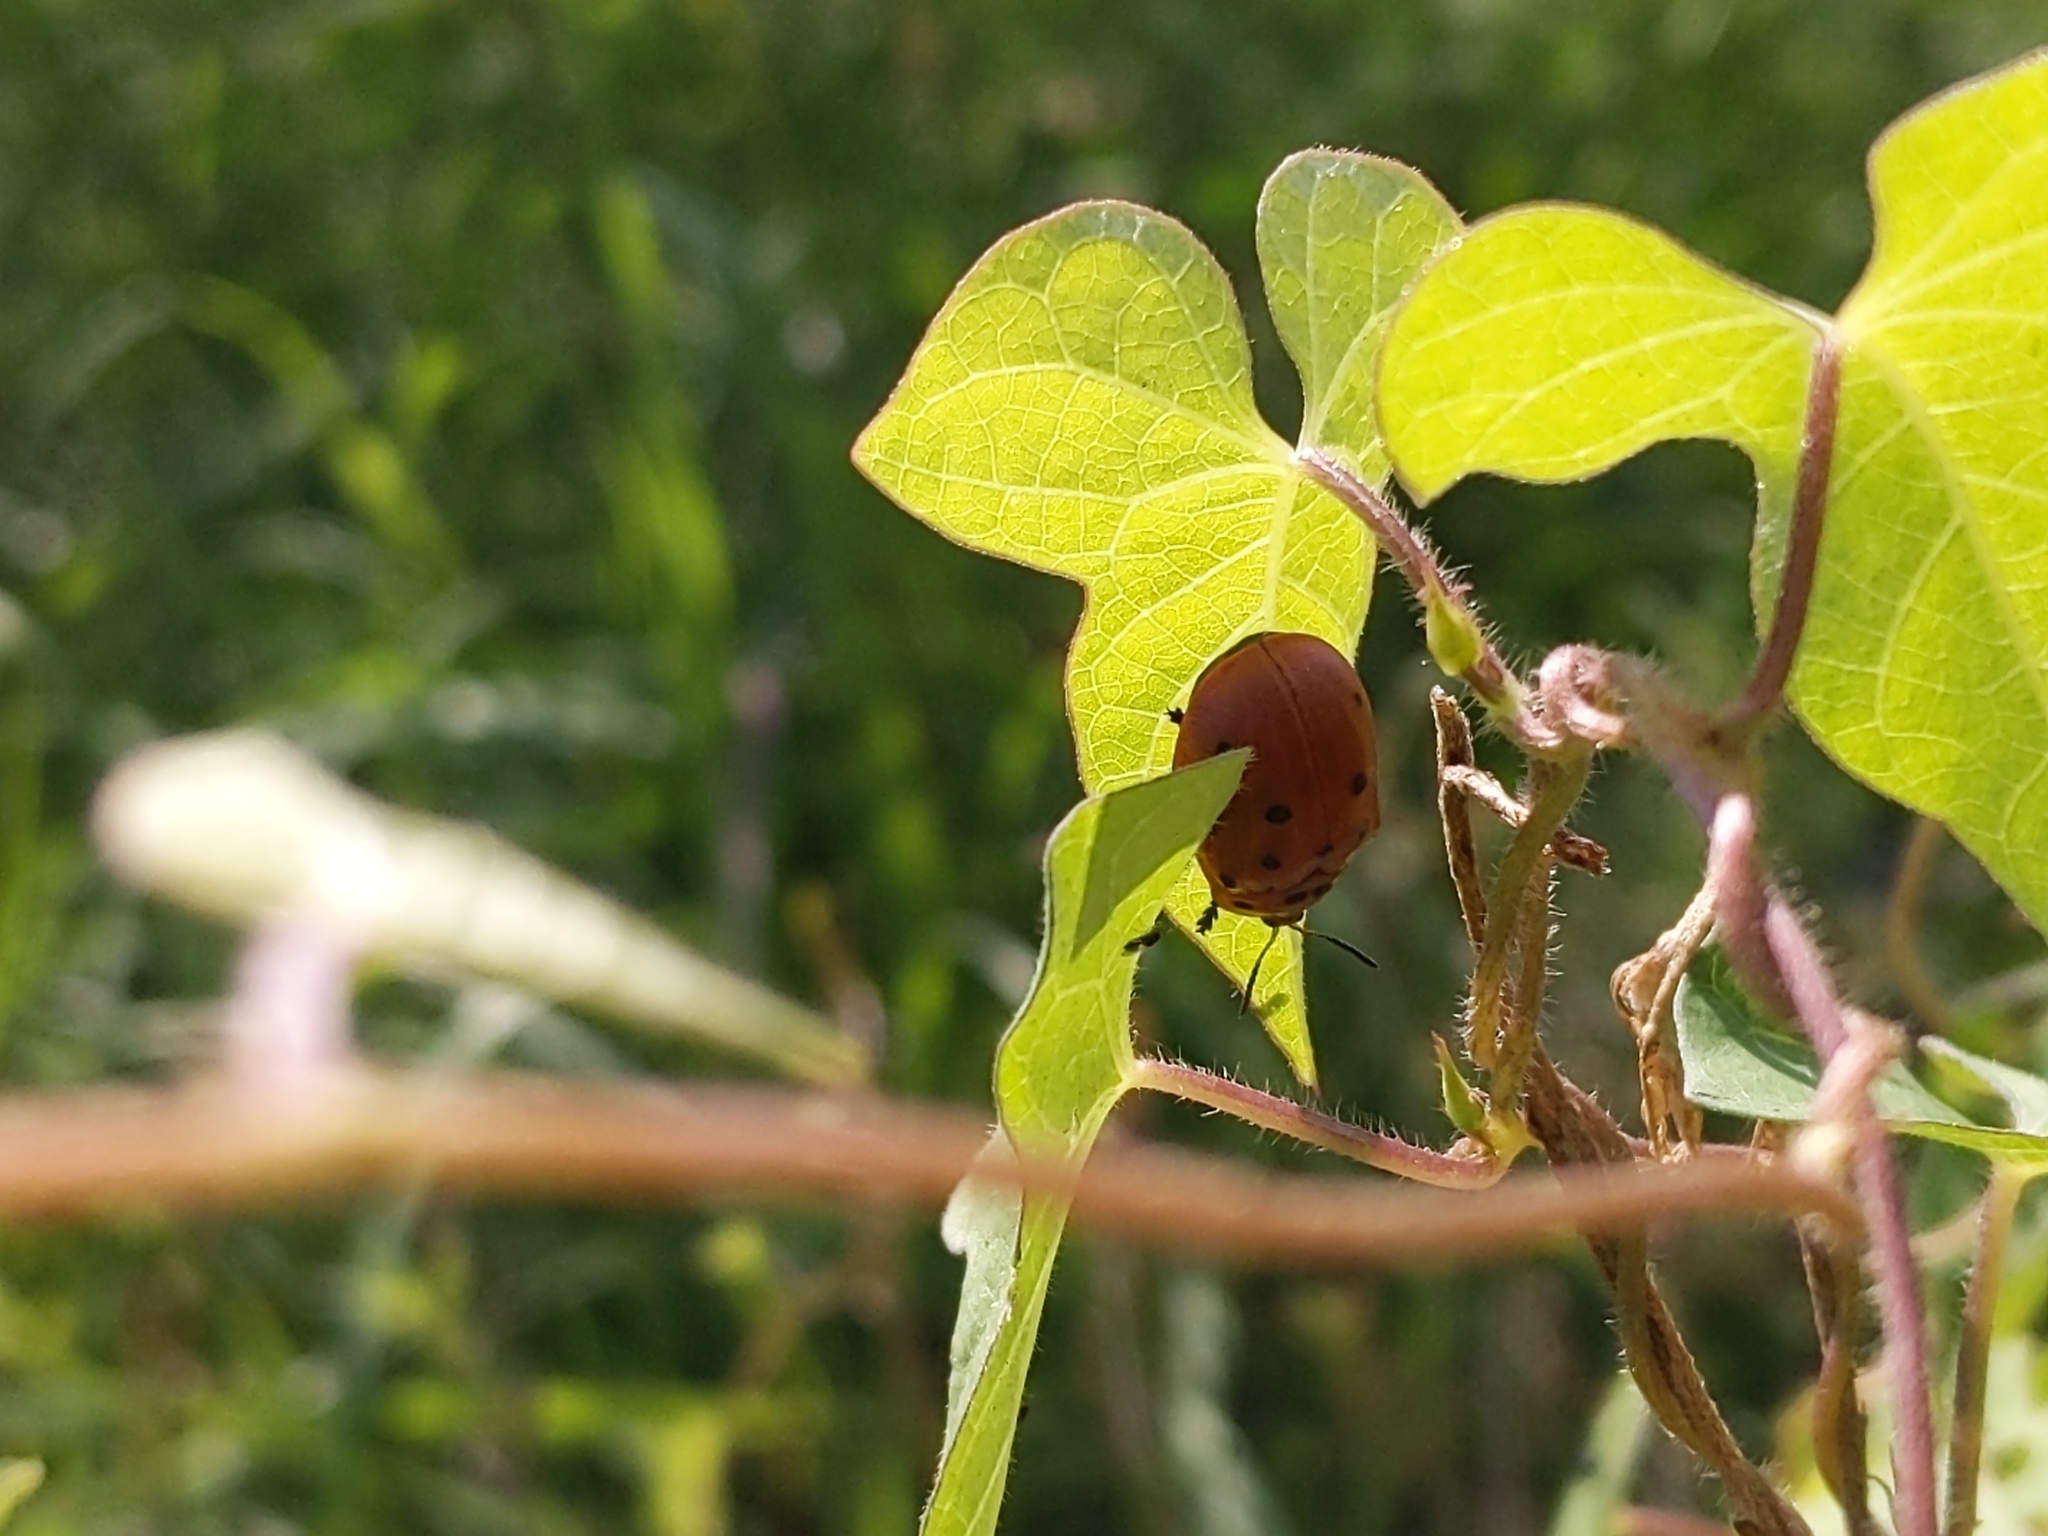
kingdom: Animalia
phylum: Arthropoda
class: Insecta
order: Coleoptera
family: Chrysomelidae
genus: Chelymorpha
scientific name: Chelymorpha cassidea
